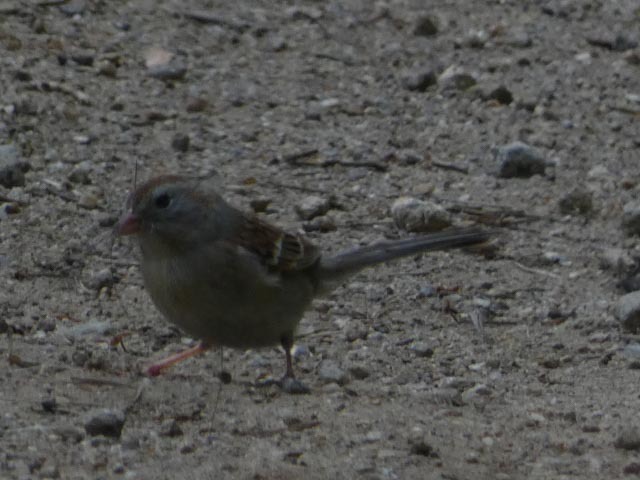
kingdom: Animalia
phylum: Chordata
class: Aves
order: Passeriformes
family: Passerellidae
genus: Spizella
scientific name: Spizella pusilla
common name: Field sparrow
